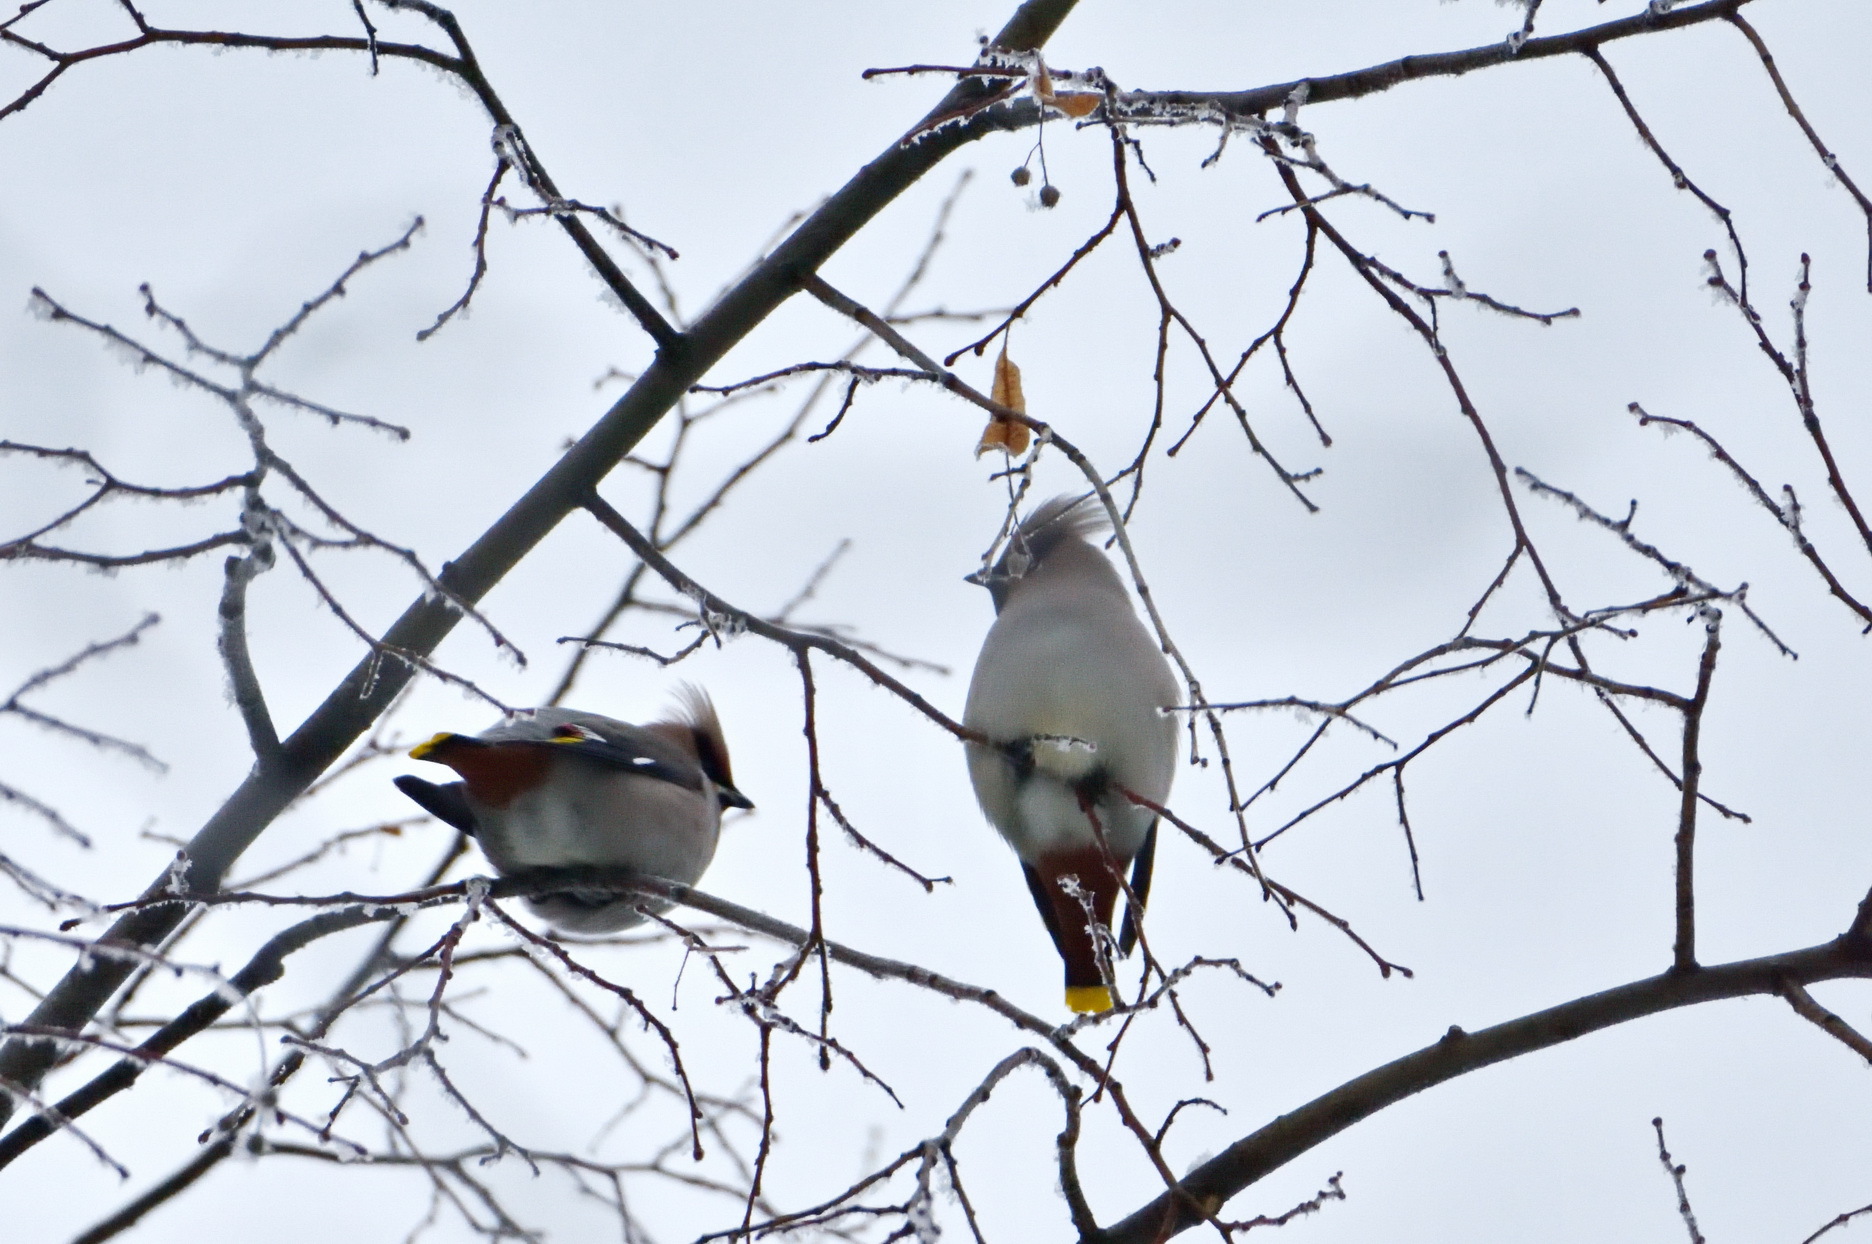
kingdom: Animalia
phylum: Chordata
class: Aves
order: Passeriformes
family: Bombycillidae
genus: Bombycilla
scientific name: Bombycilla garrulus
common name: Bohemian waxwing
